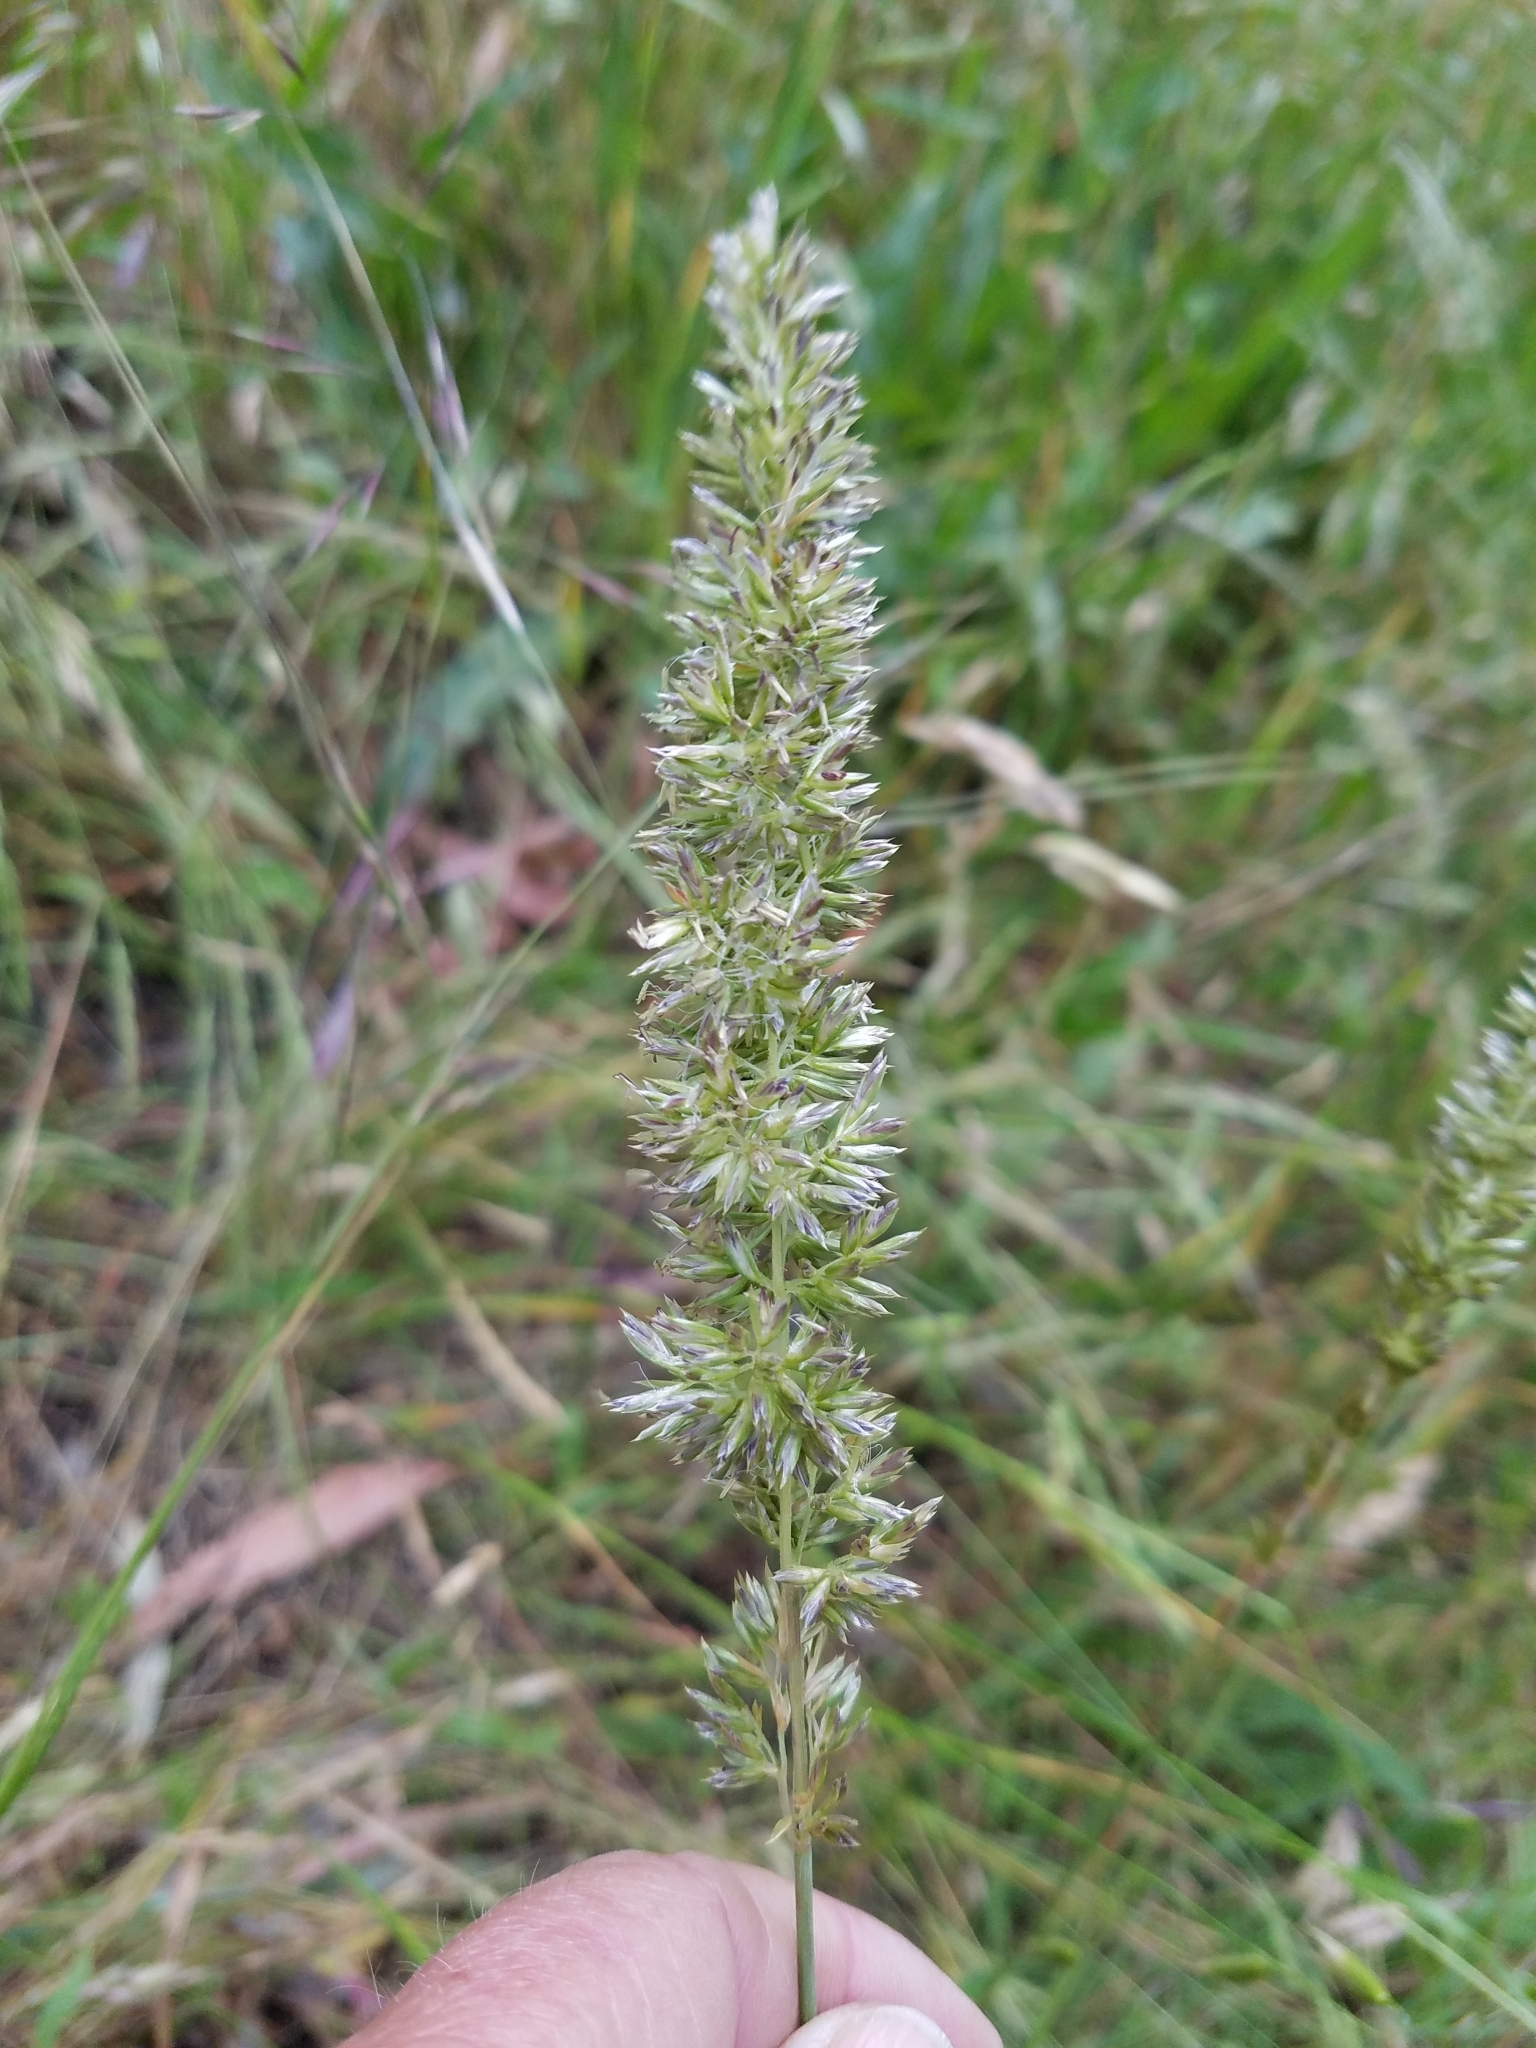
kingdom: Plantae
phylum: Tracheophyta
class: Liliopsida
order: Poales
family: Poaceae
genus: Koeleria
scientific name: Koeleria macrantha
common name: Crested hair-grass
